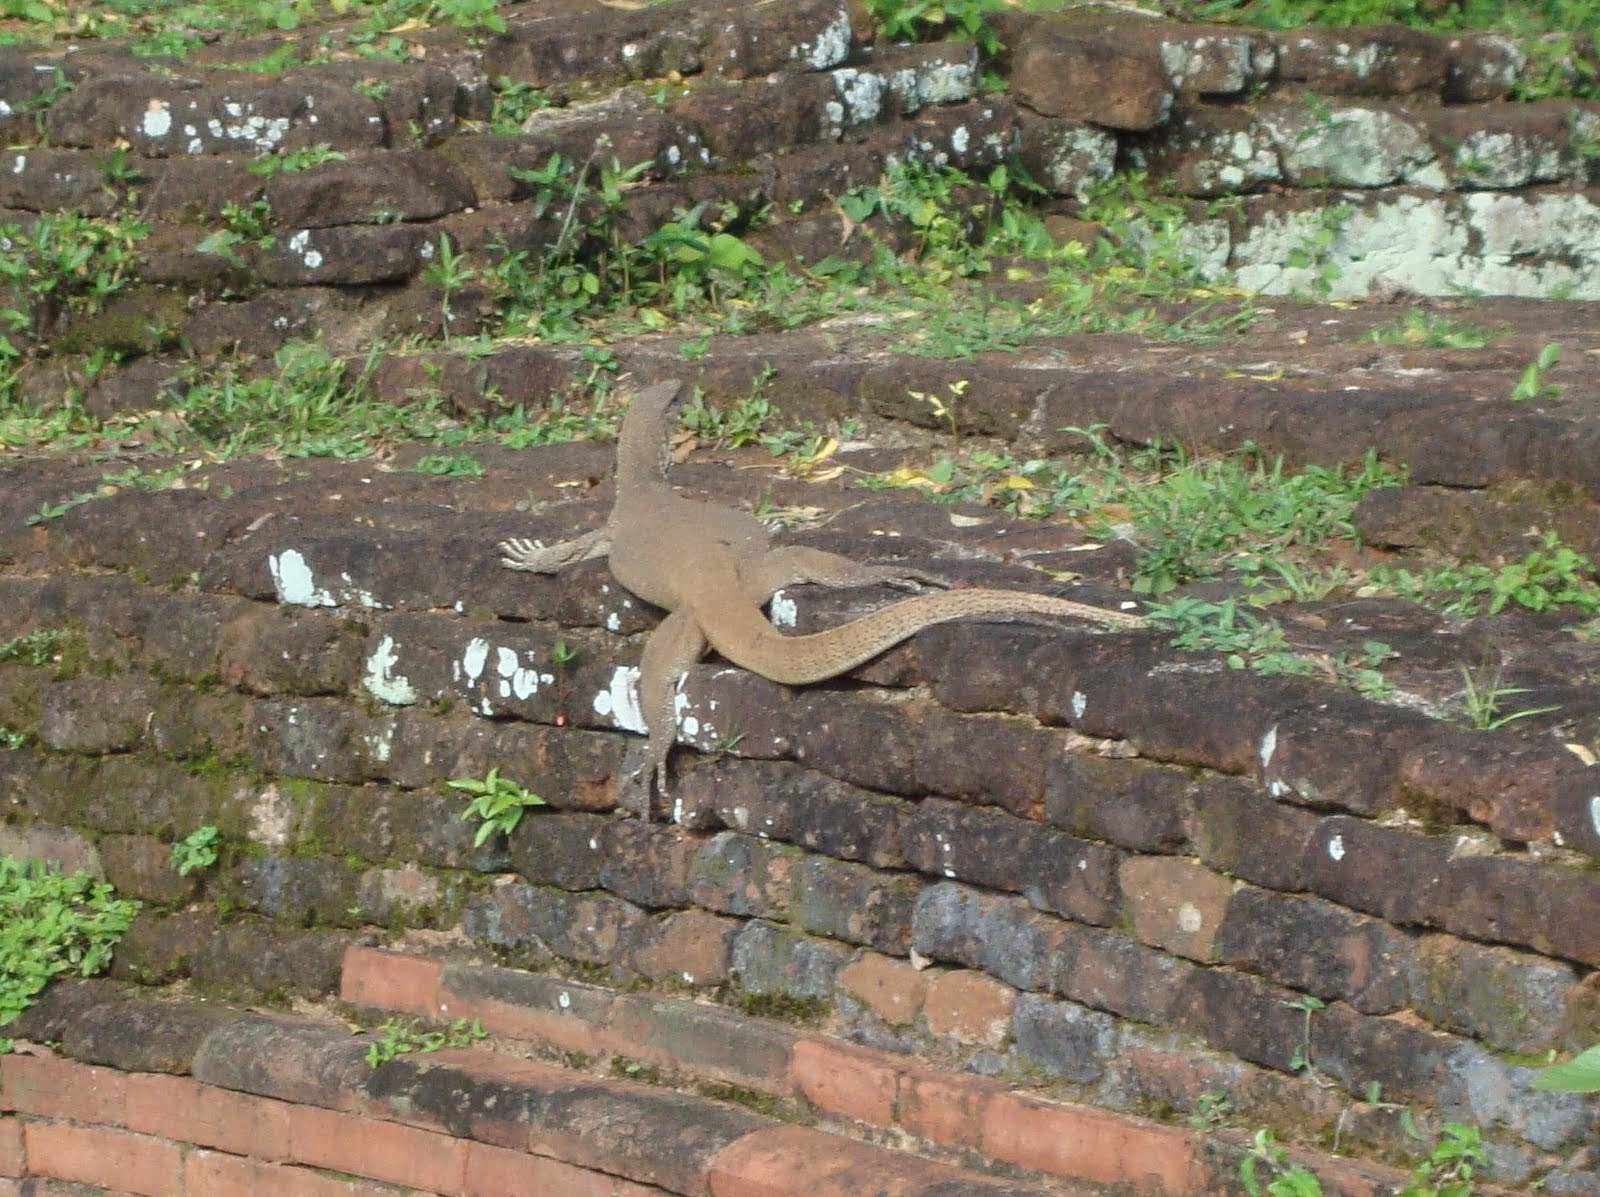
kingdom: Animalia
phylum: Chordata
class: Squamata
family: Varanidae
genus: Varanus
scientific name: Varanus bengalensis
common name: Bengal monitor
